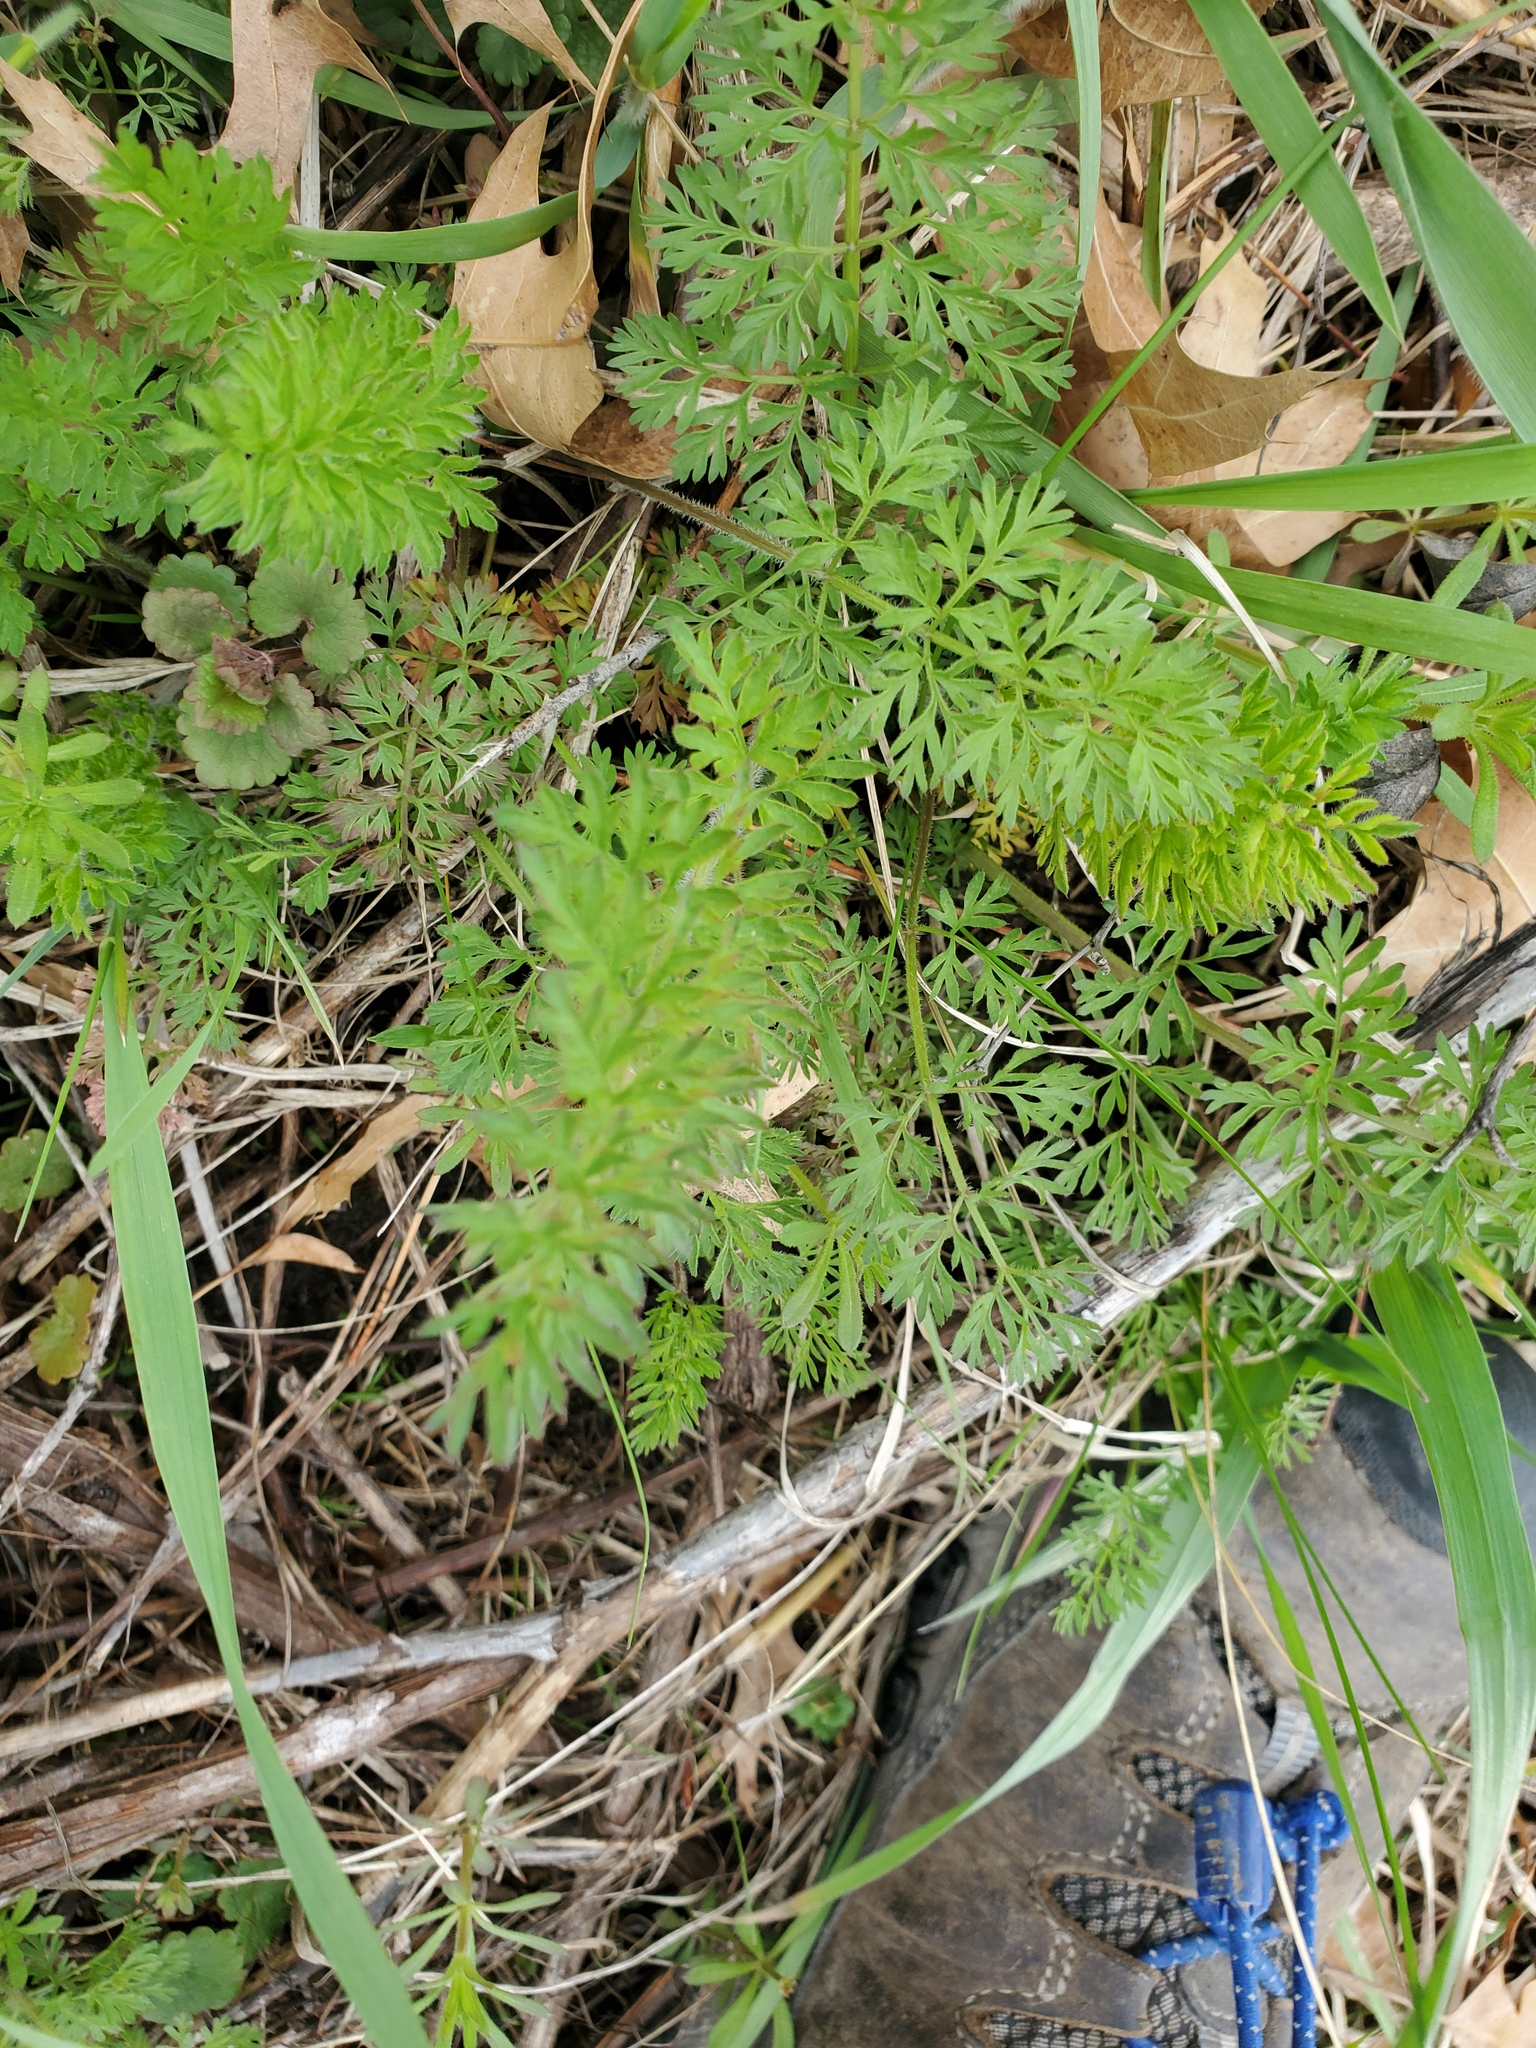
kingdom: Plantae
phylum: Tracheophyta
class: Magnoliopsida
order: Apiales
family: Apiaceae
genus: Daucus
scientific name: Daucus carota
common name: Wild carrot
